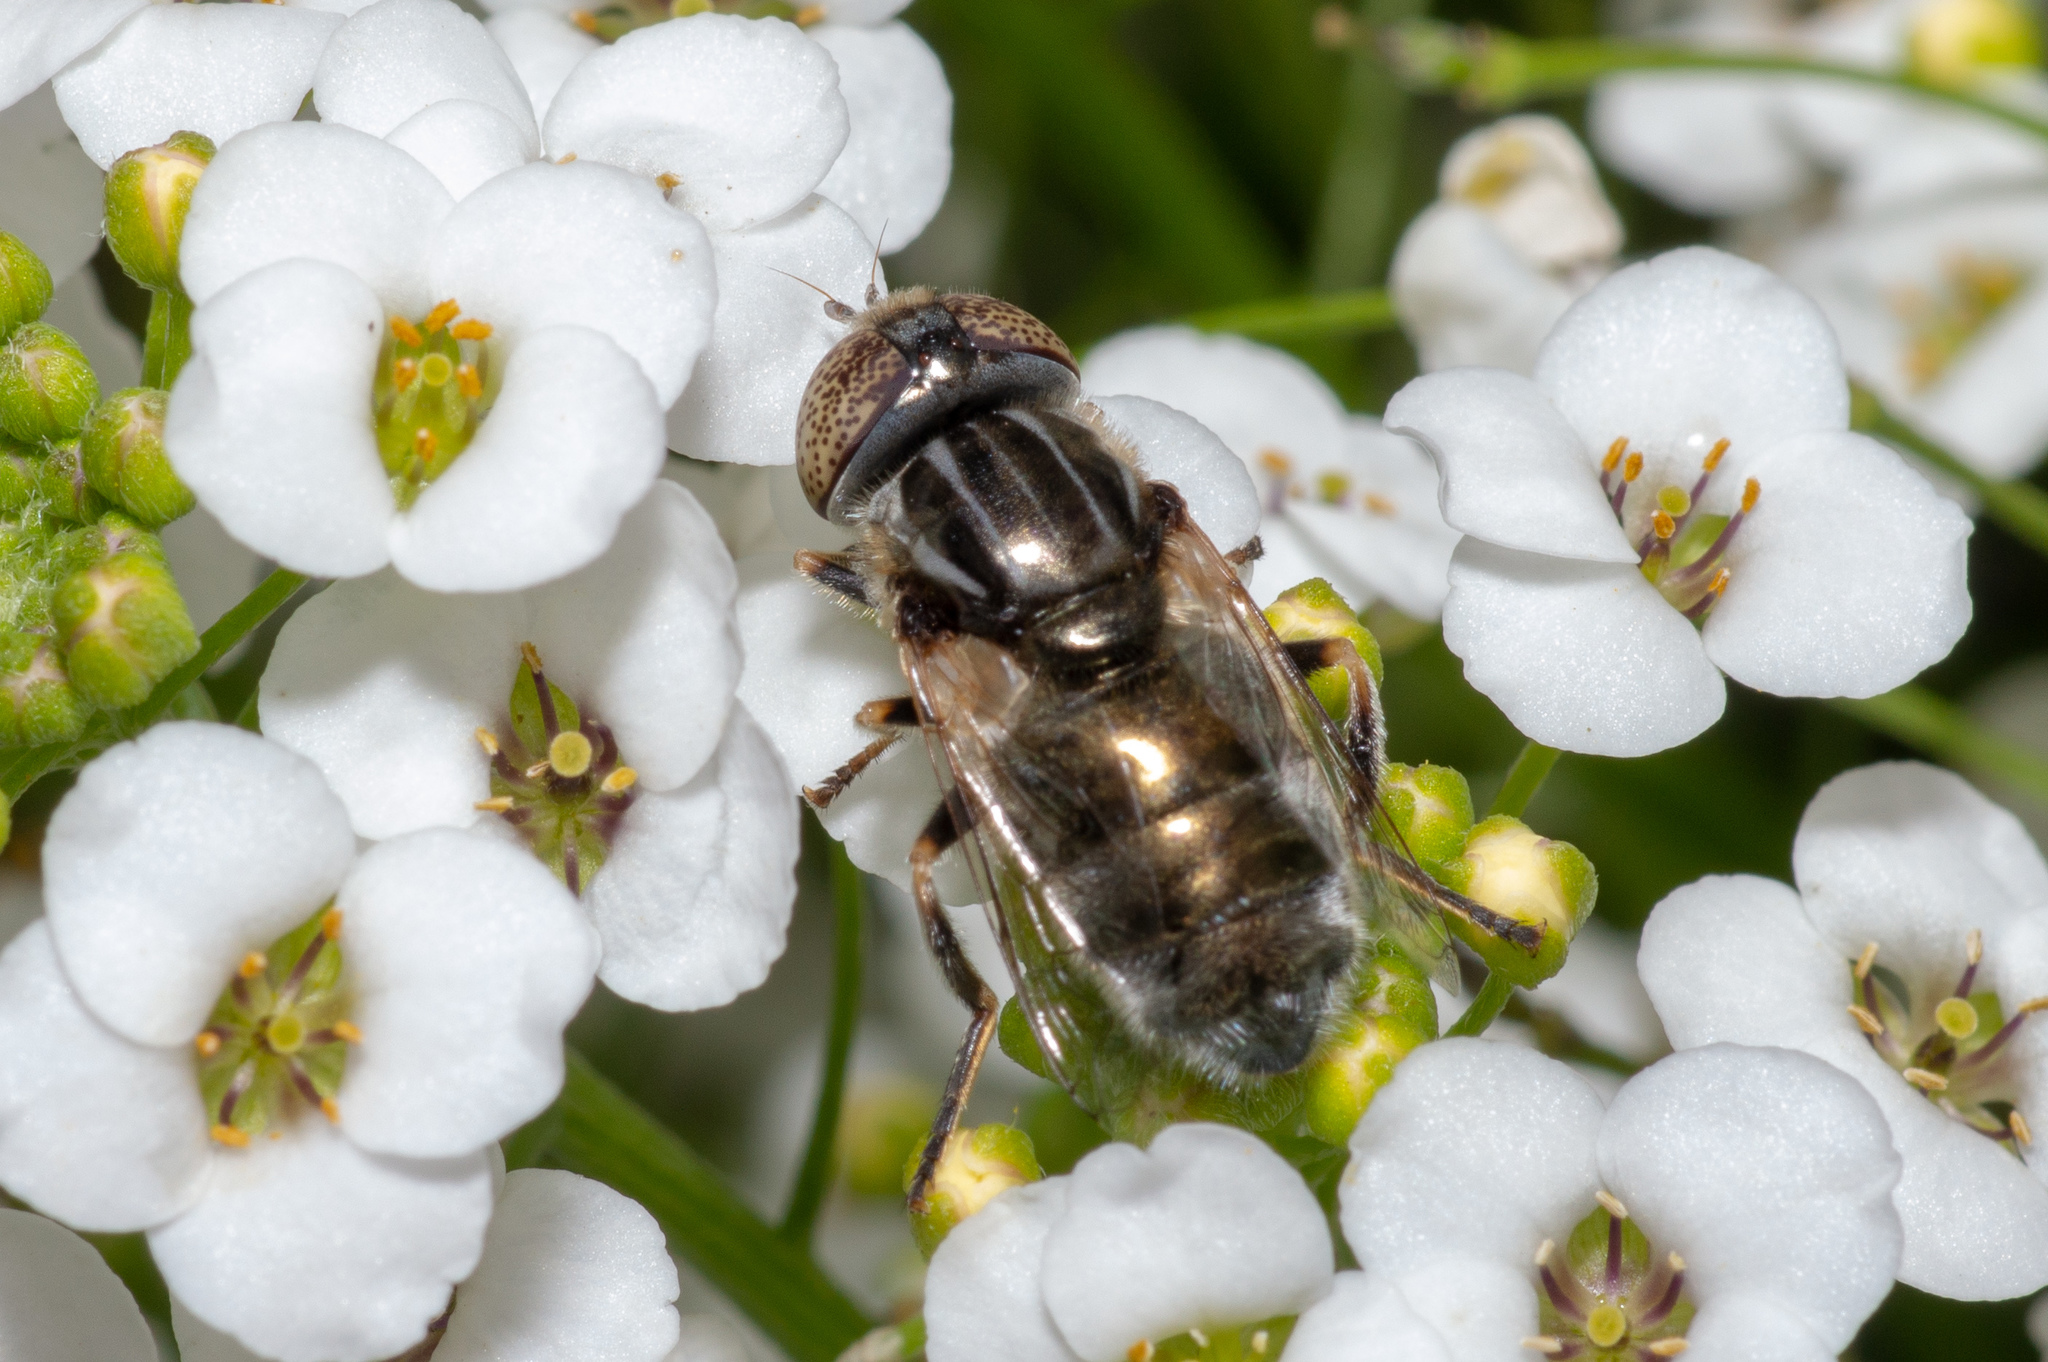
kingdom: Animalia
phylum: Arthropoda
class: Insecta
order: Diptera
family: Syrphidae
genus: Eristalinus
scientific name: Eristalinus aeneus
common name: Syrphid fly
